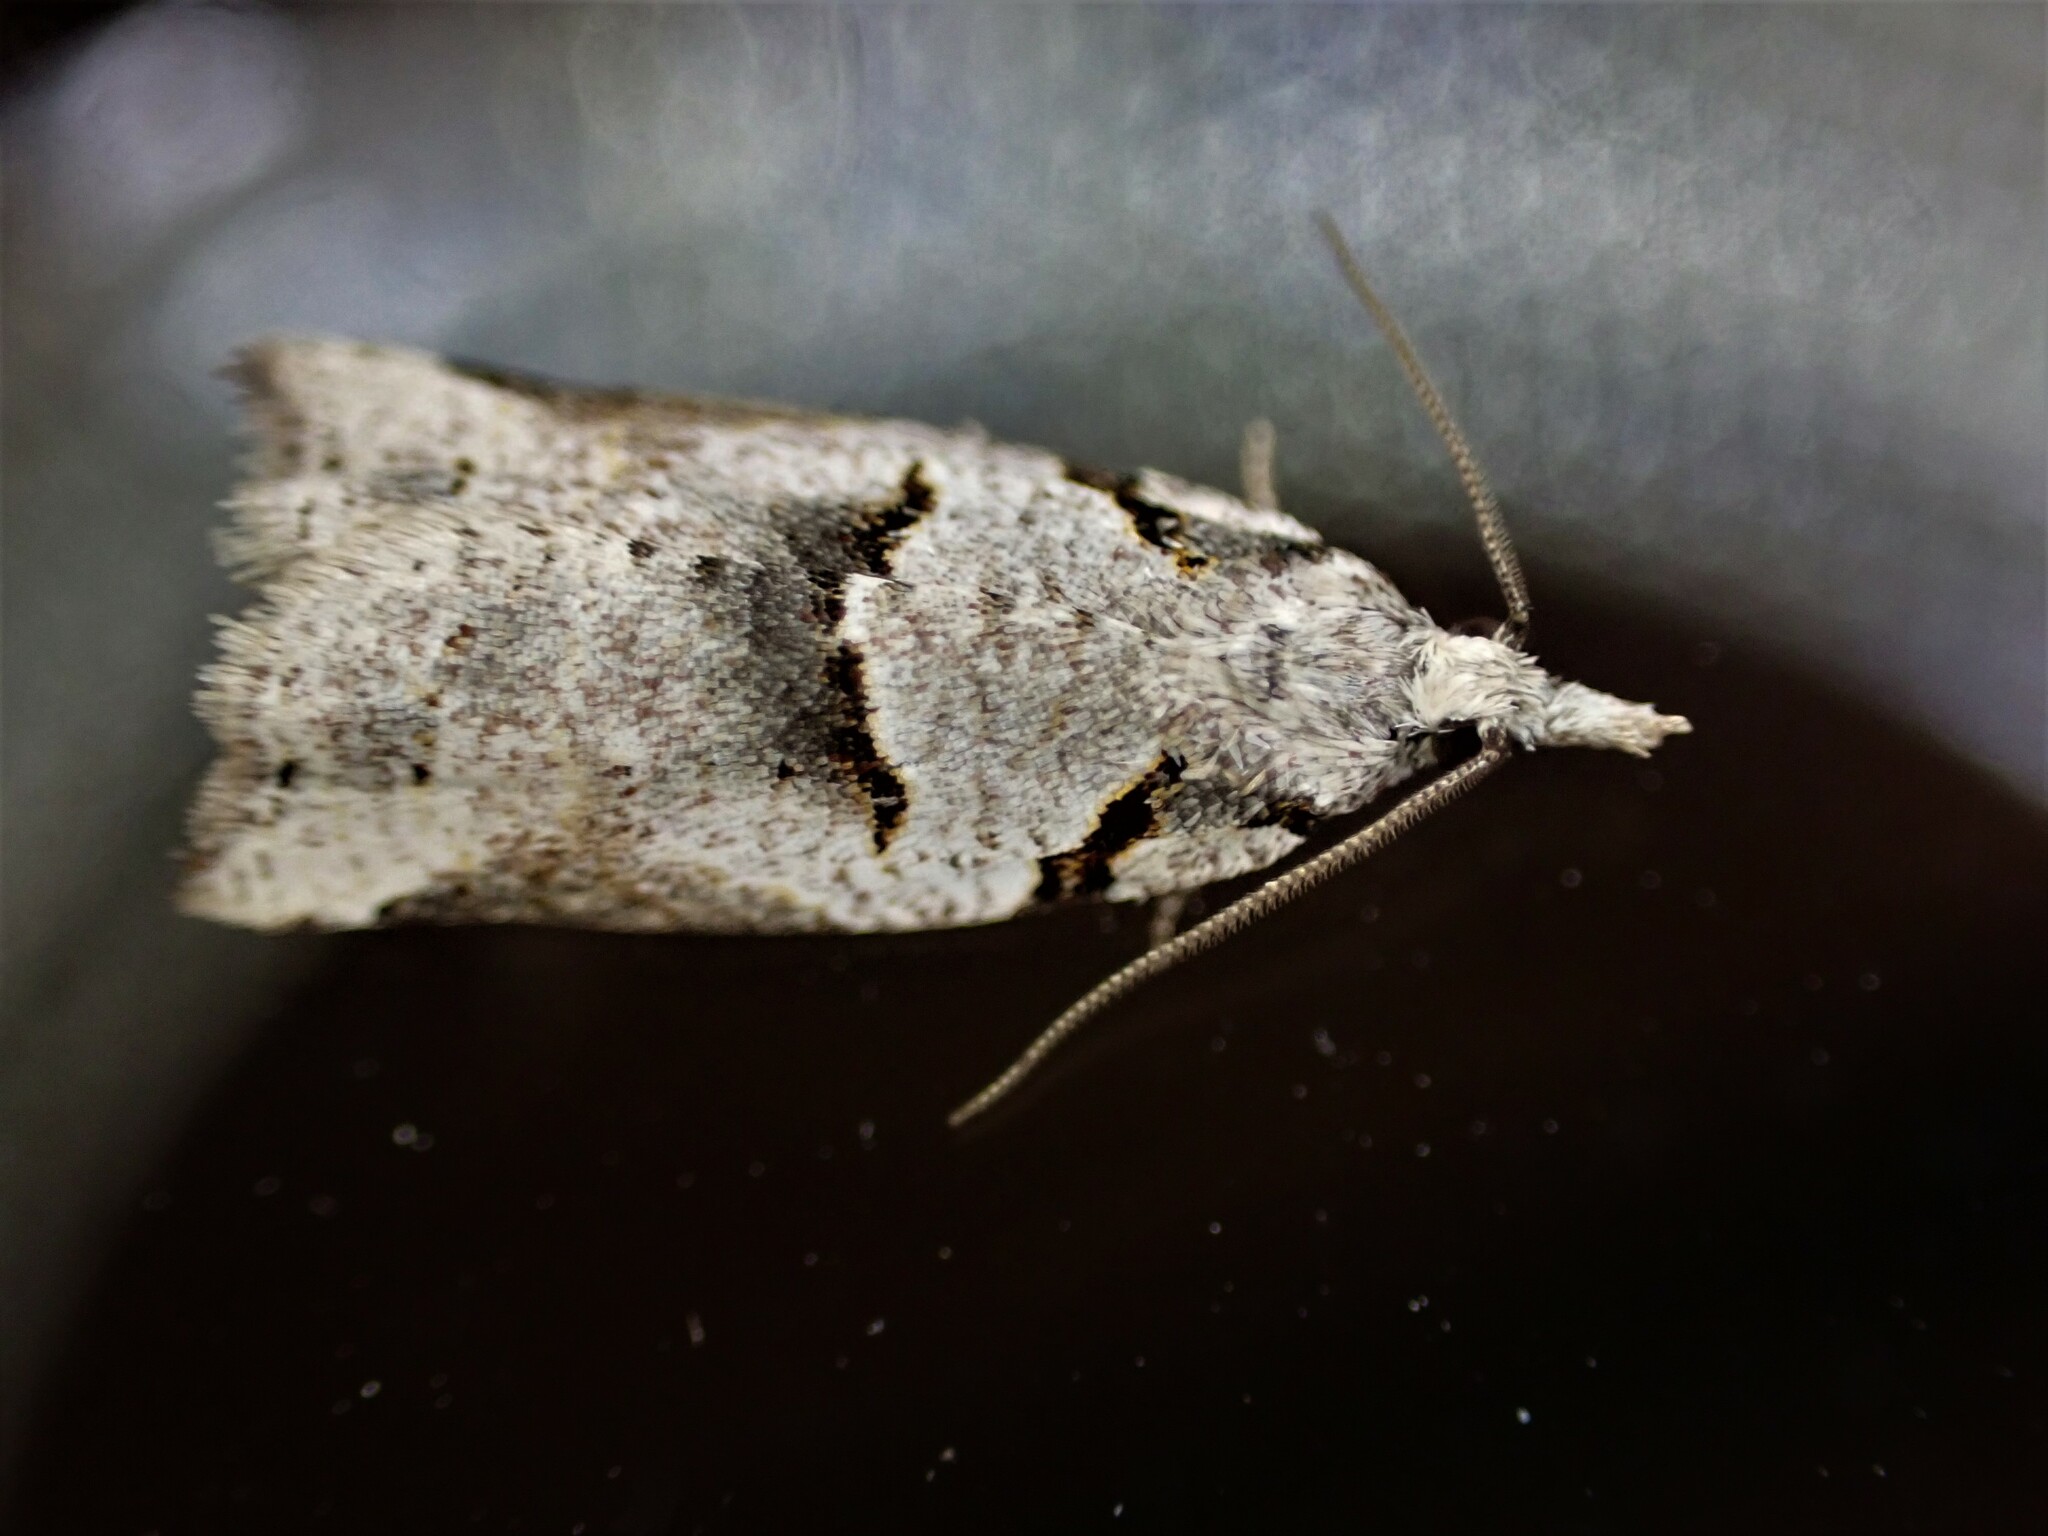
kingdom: Animalia
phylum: Arthropoda
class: Insecta
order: Lepidoptera
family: Tortricidae
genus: Harmologa
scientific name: Harmologa amplexana
